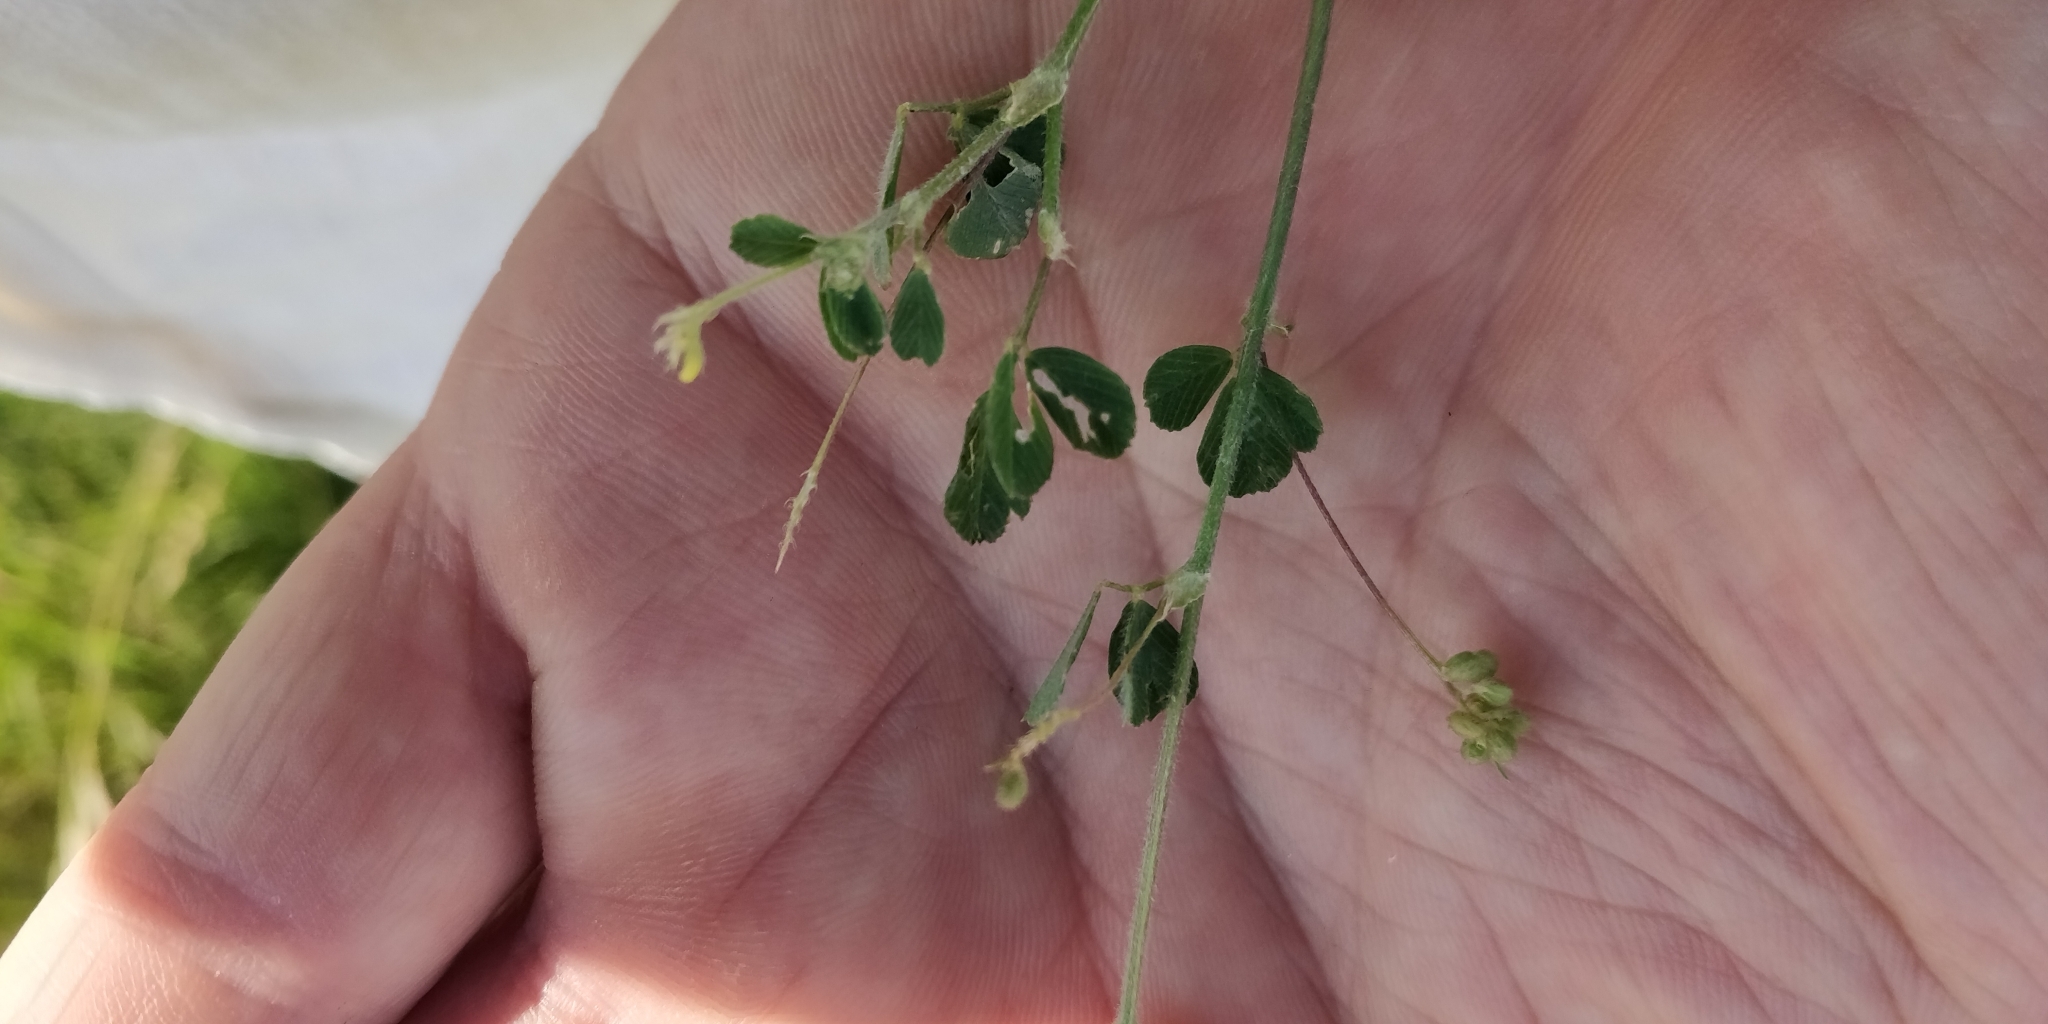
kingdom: Plantae
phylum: Tracheophyta
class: Magnoliopsida
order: Fabales
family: Fabaceae
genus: Medicago
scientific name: Medicago lupulina
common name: Black medick
